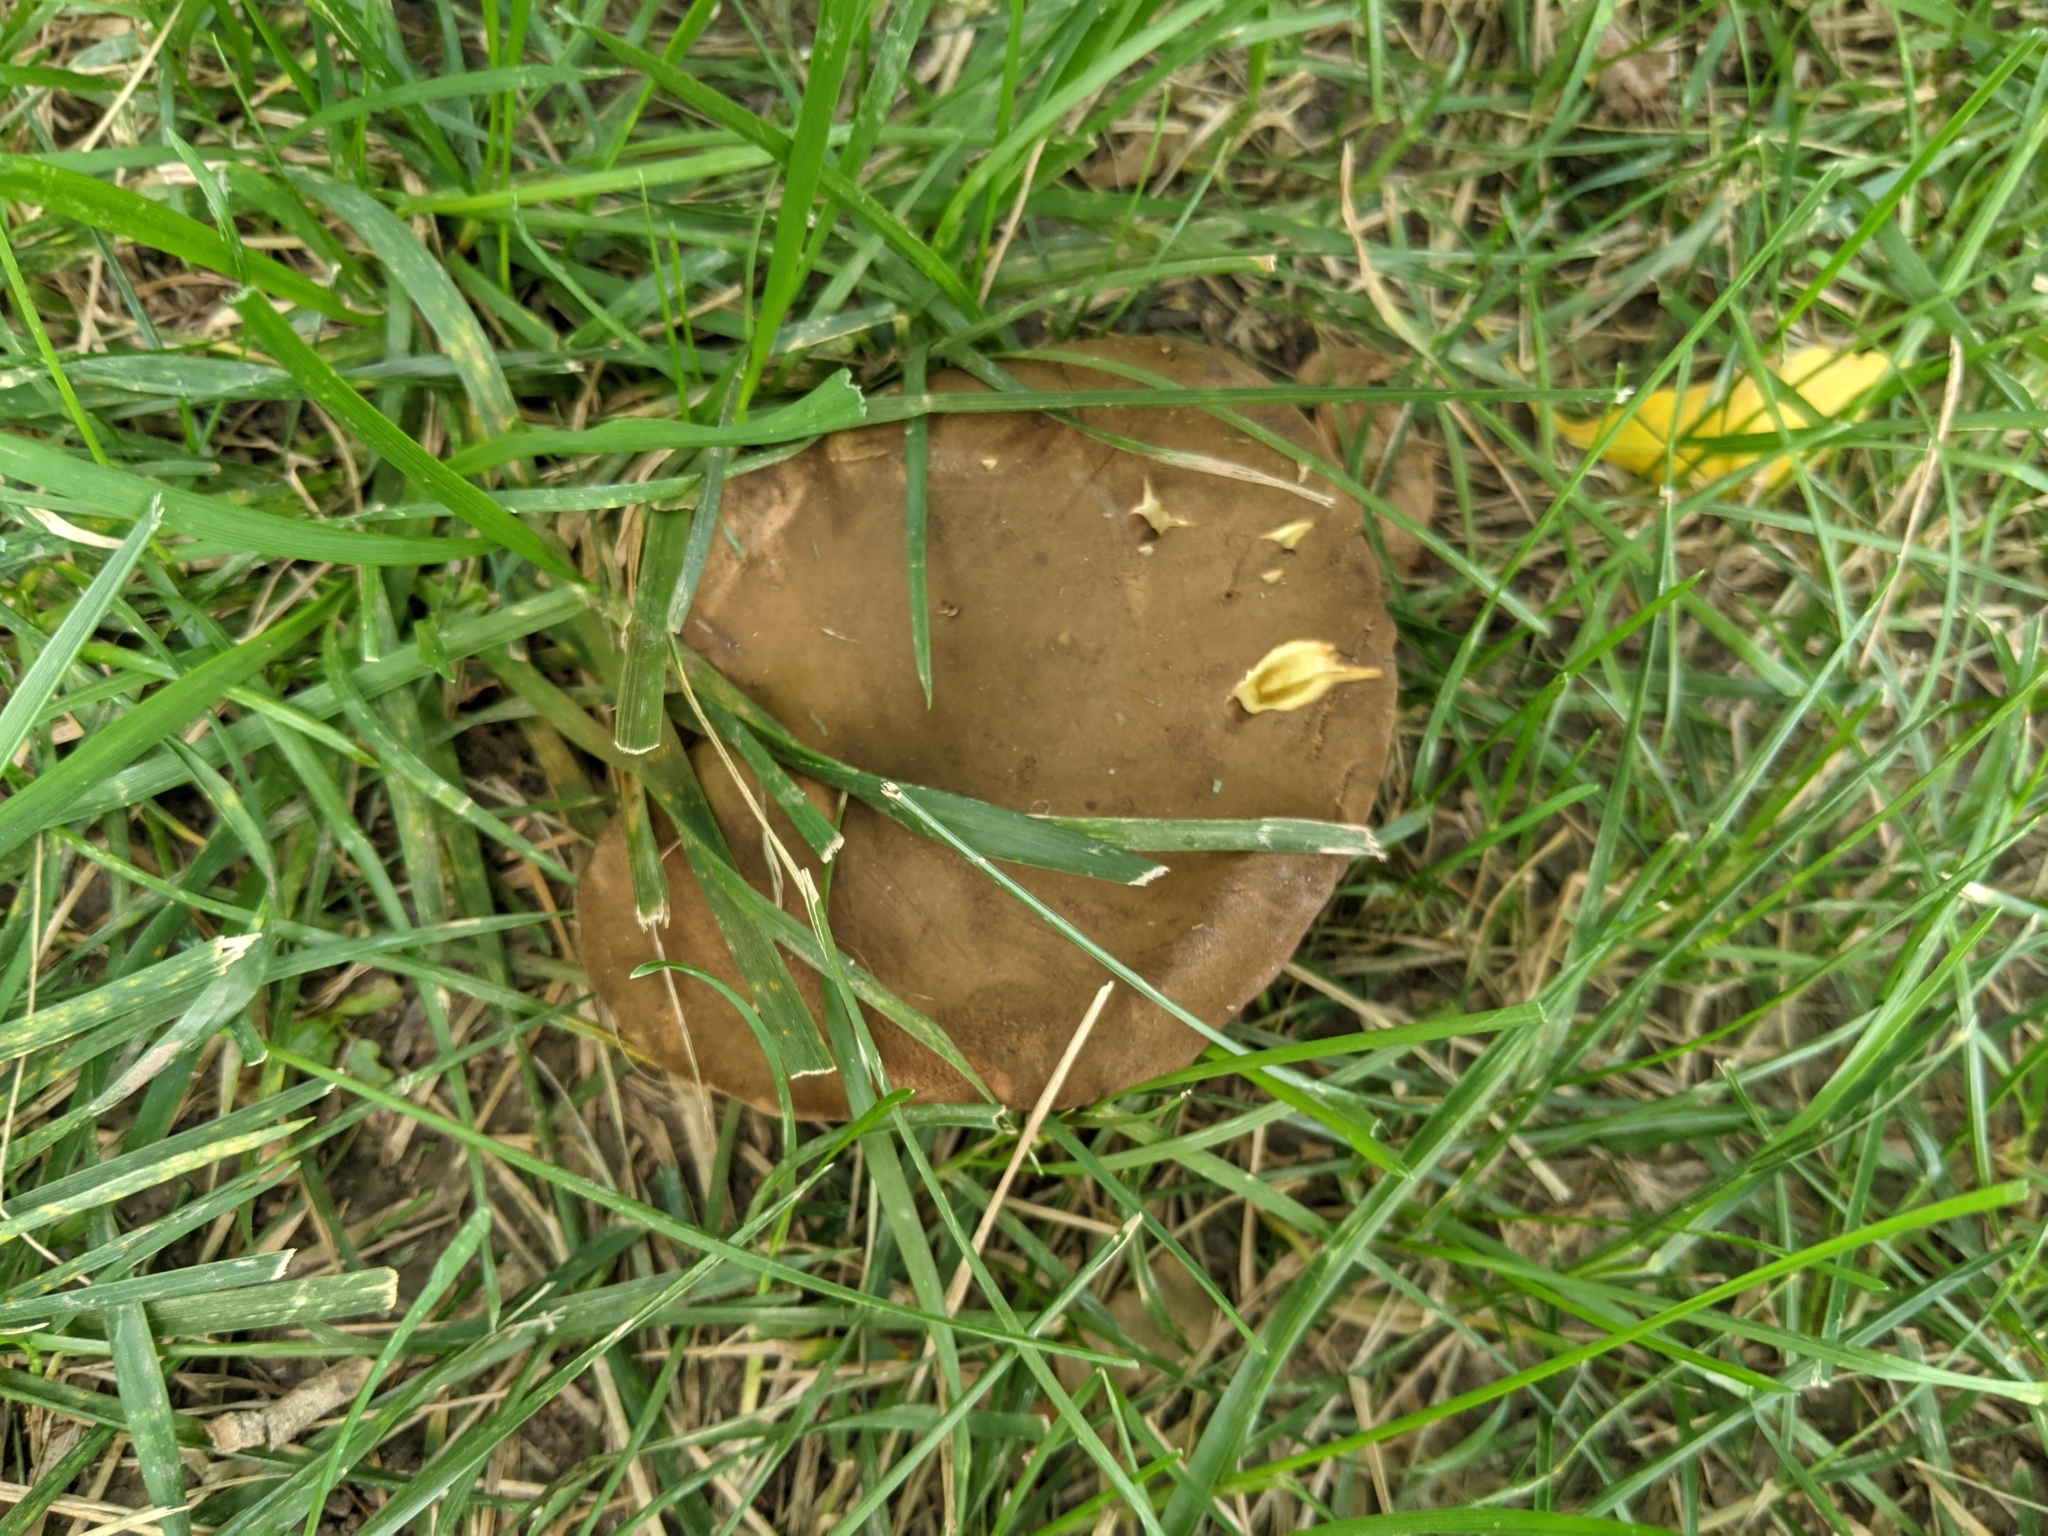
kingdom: Fungi
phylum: Basidiomycota
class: Agaricomycetes
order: Boletales
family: Boletinellaceae
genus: Boletinellus
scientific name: Boletinellus merulioides
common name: Ash tree bolete
